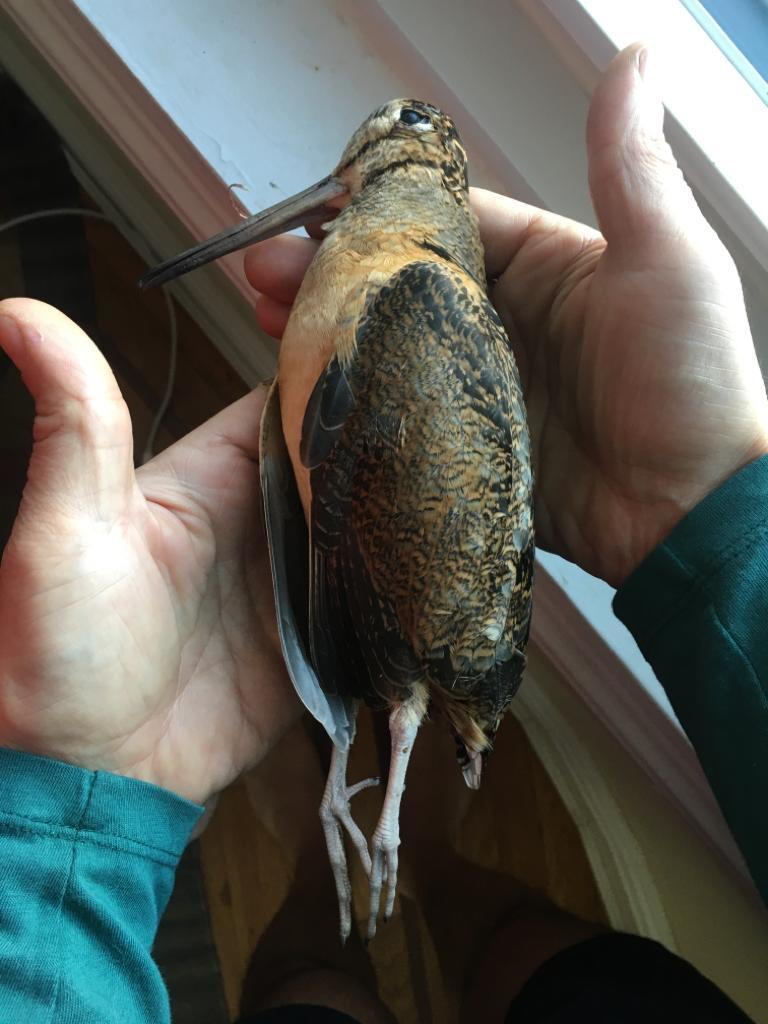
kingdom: Animalia
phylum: Chordata
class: Aves
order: Charadriiformes
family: Scolopacidae
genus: Scolopax
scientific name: Scolopax minor
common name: American woodcock
